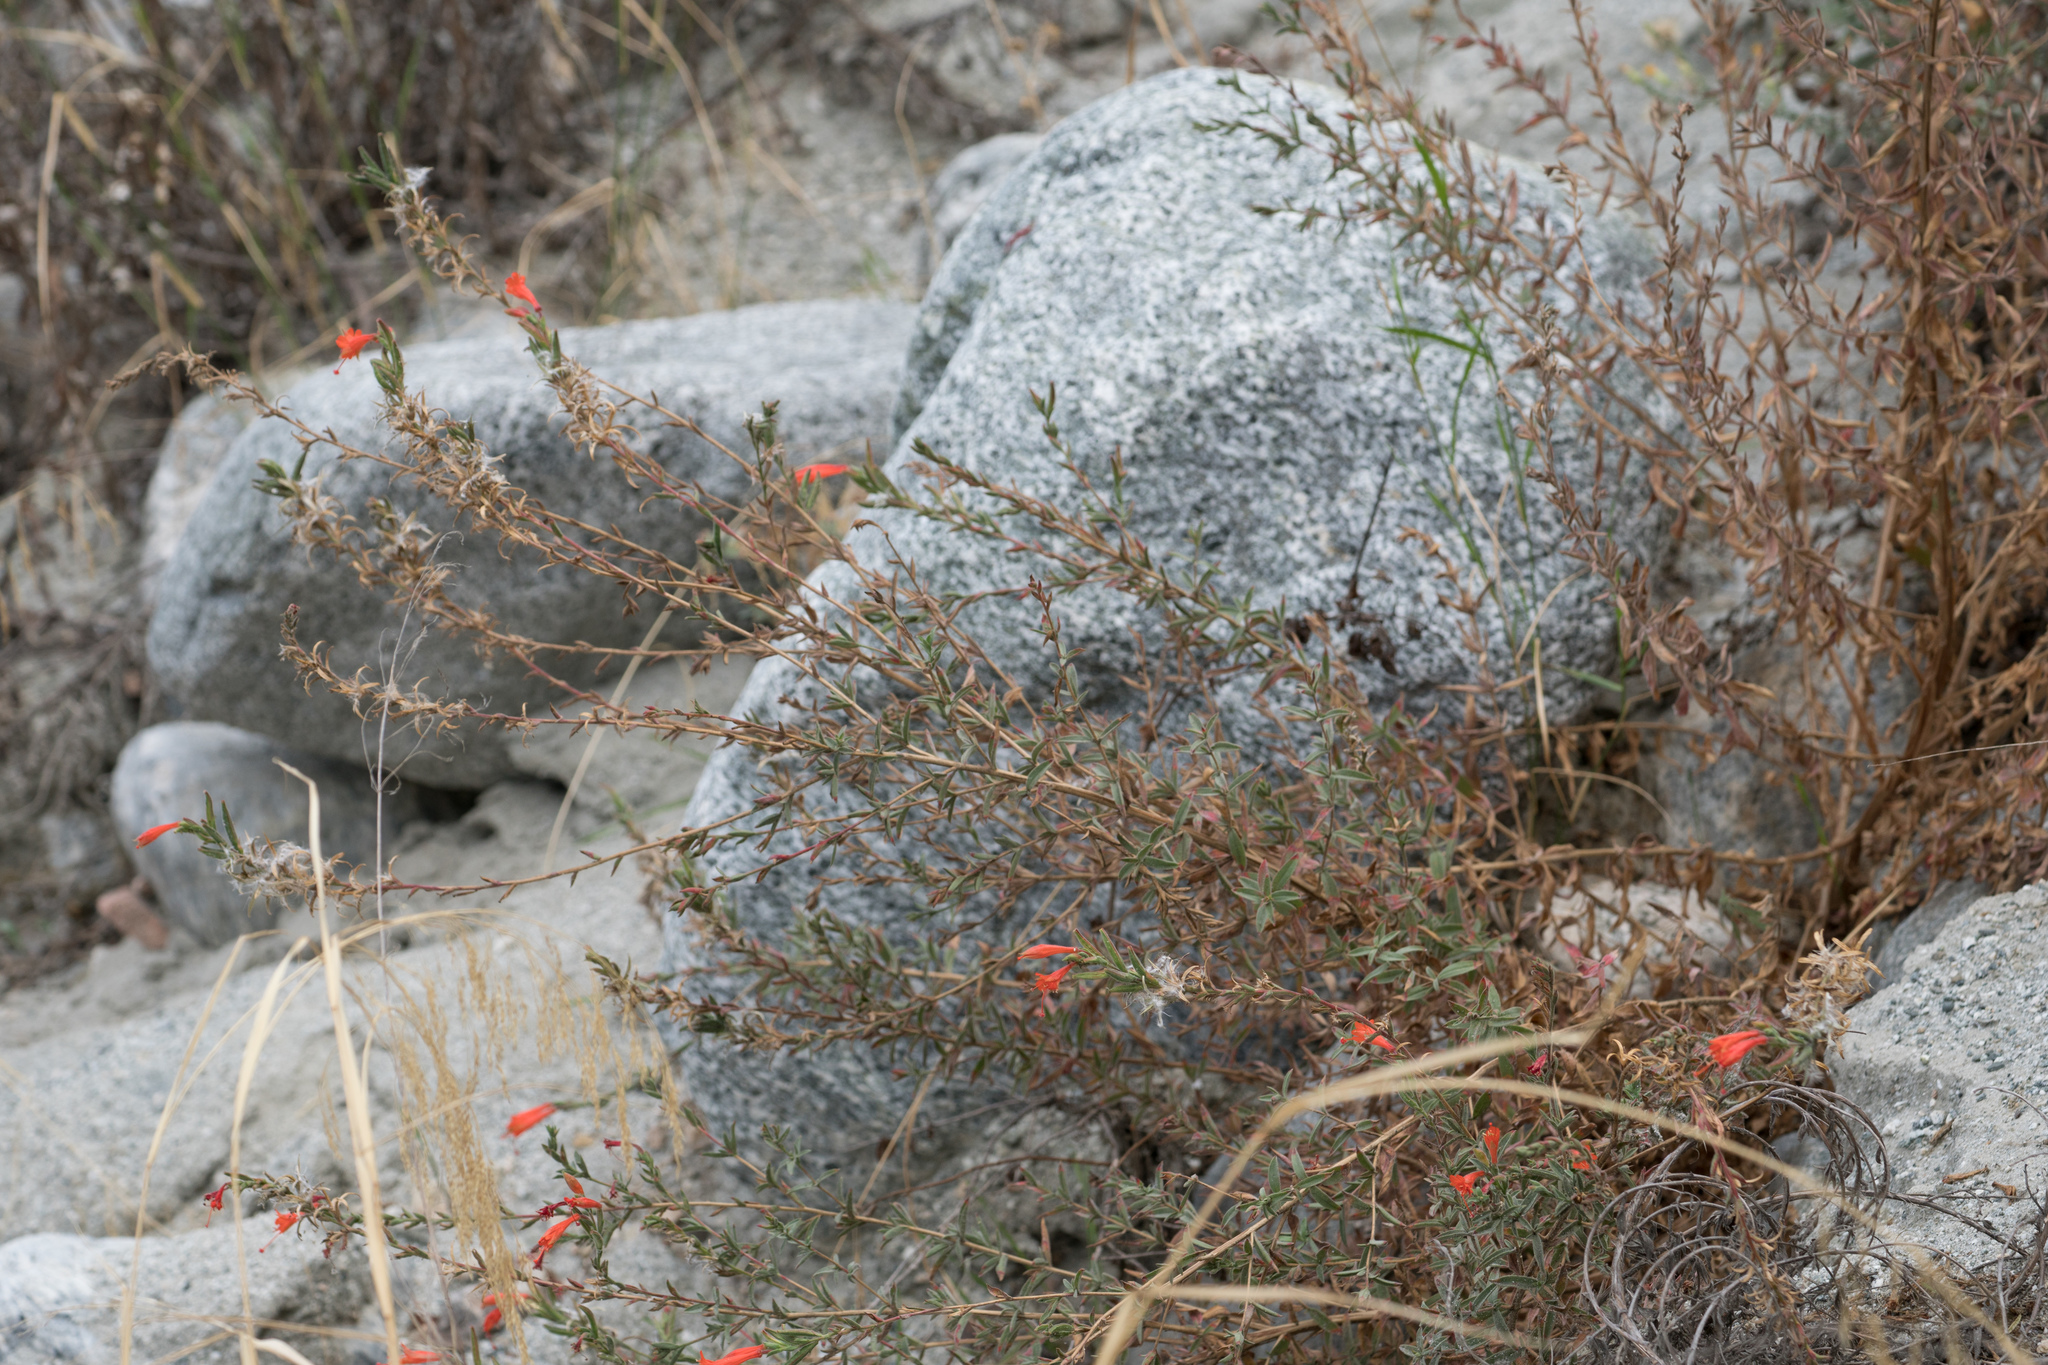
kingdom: Plantae
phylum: Tracheophyta
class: Magnoliopsida
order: Myrtales
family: Onagraceae
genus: Epilobium
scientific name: Epilobium canum
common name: California-fuchsia
